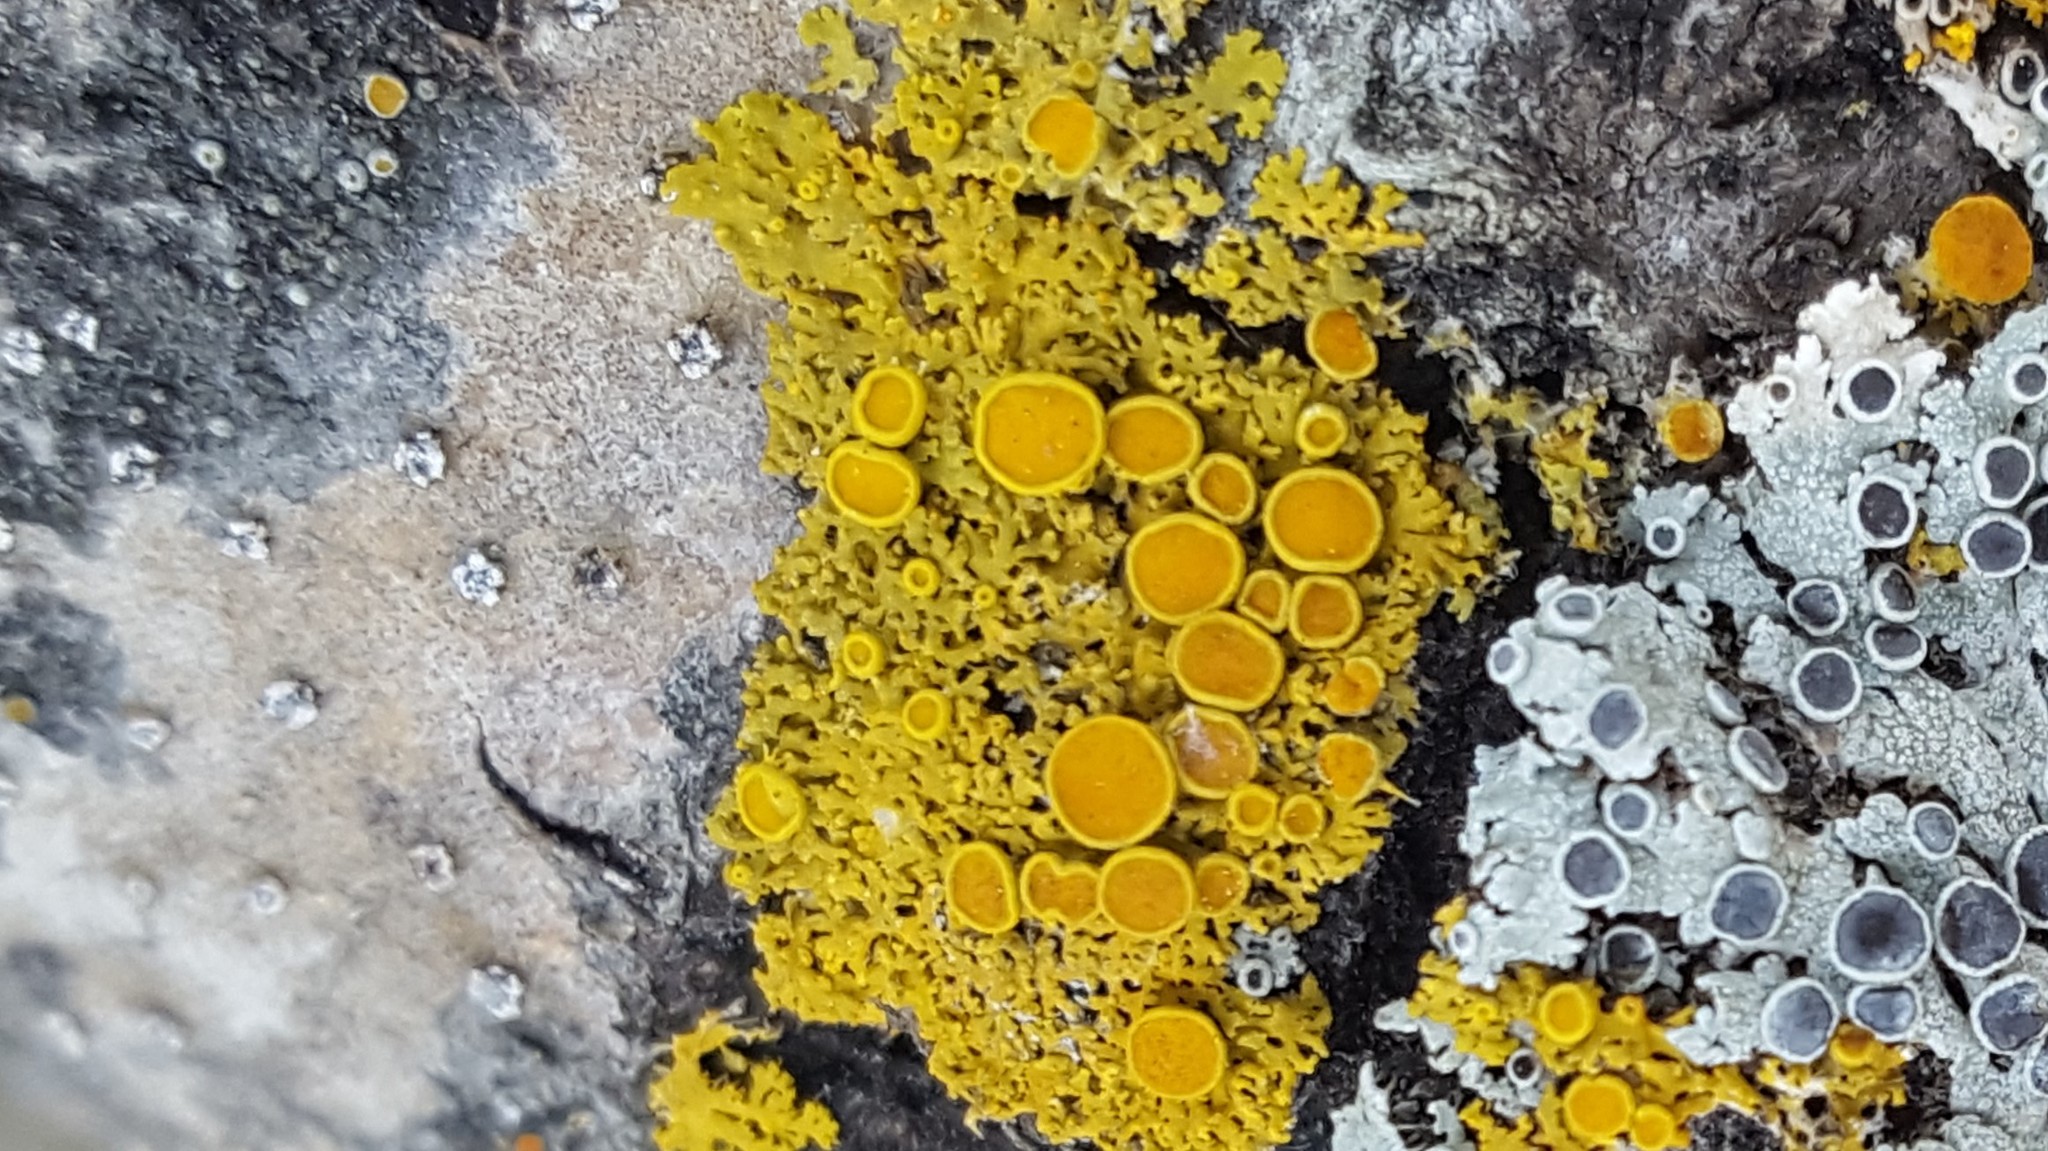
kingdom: Fungi
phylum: Ascomycota
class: Lecanoromycetes
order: Teloschistales
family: Teloschistaceae
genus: Gallowayella
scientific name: Gallowayella hasseana
